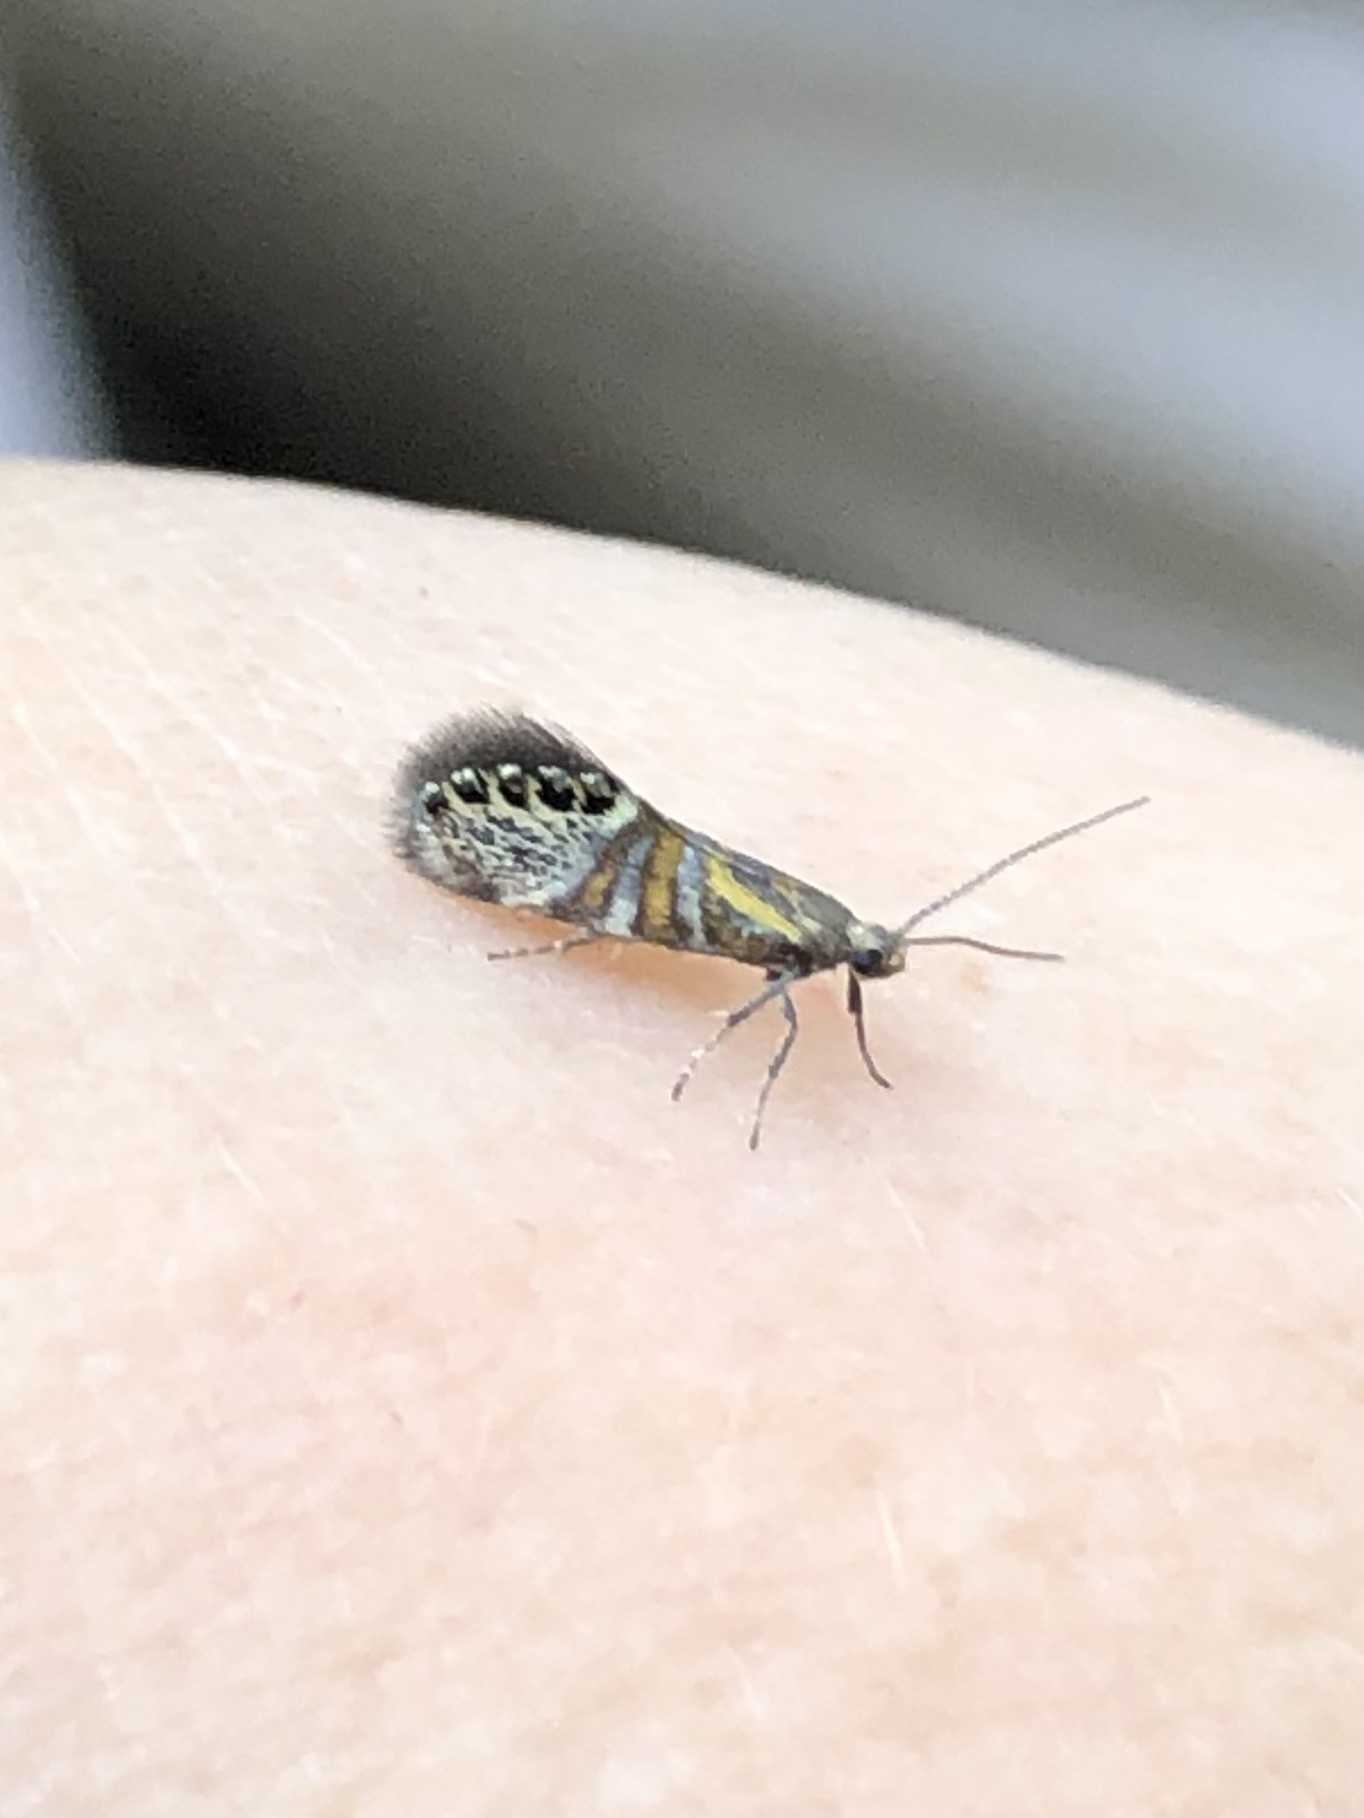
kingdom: Animalia
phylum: Arthropoda
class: Insecta
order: Lepidoptera
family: Oecophoridae
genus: Fabiola
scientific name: Fabiola quinqueferella
